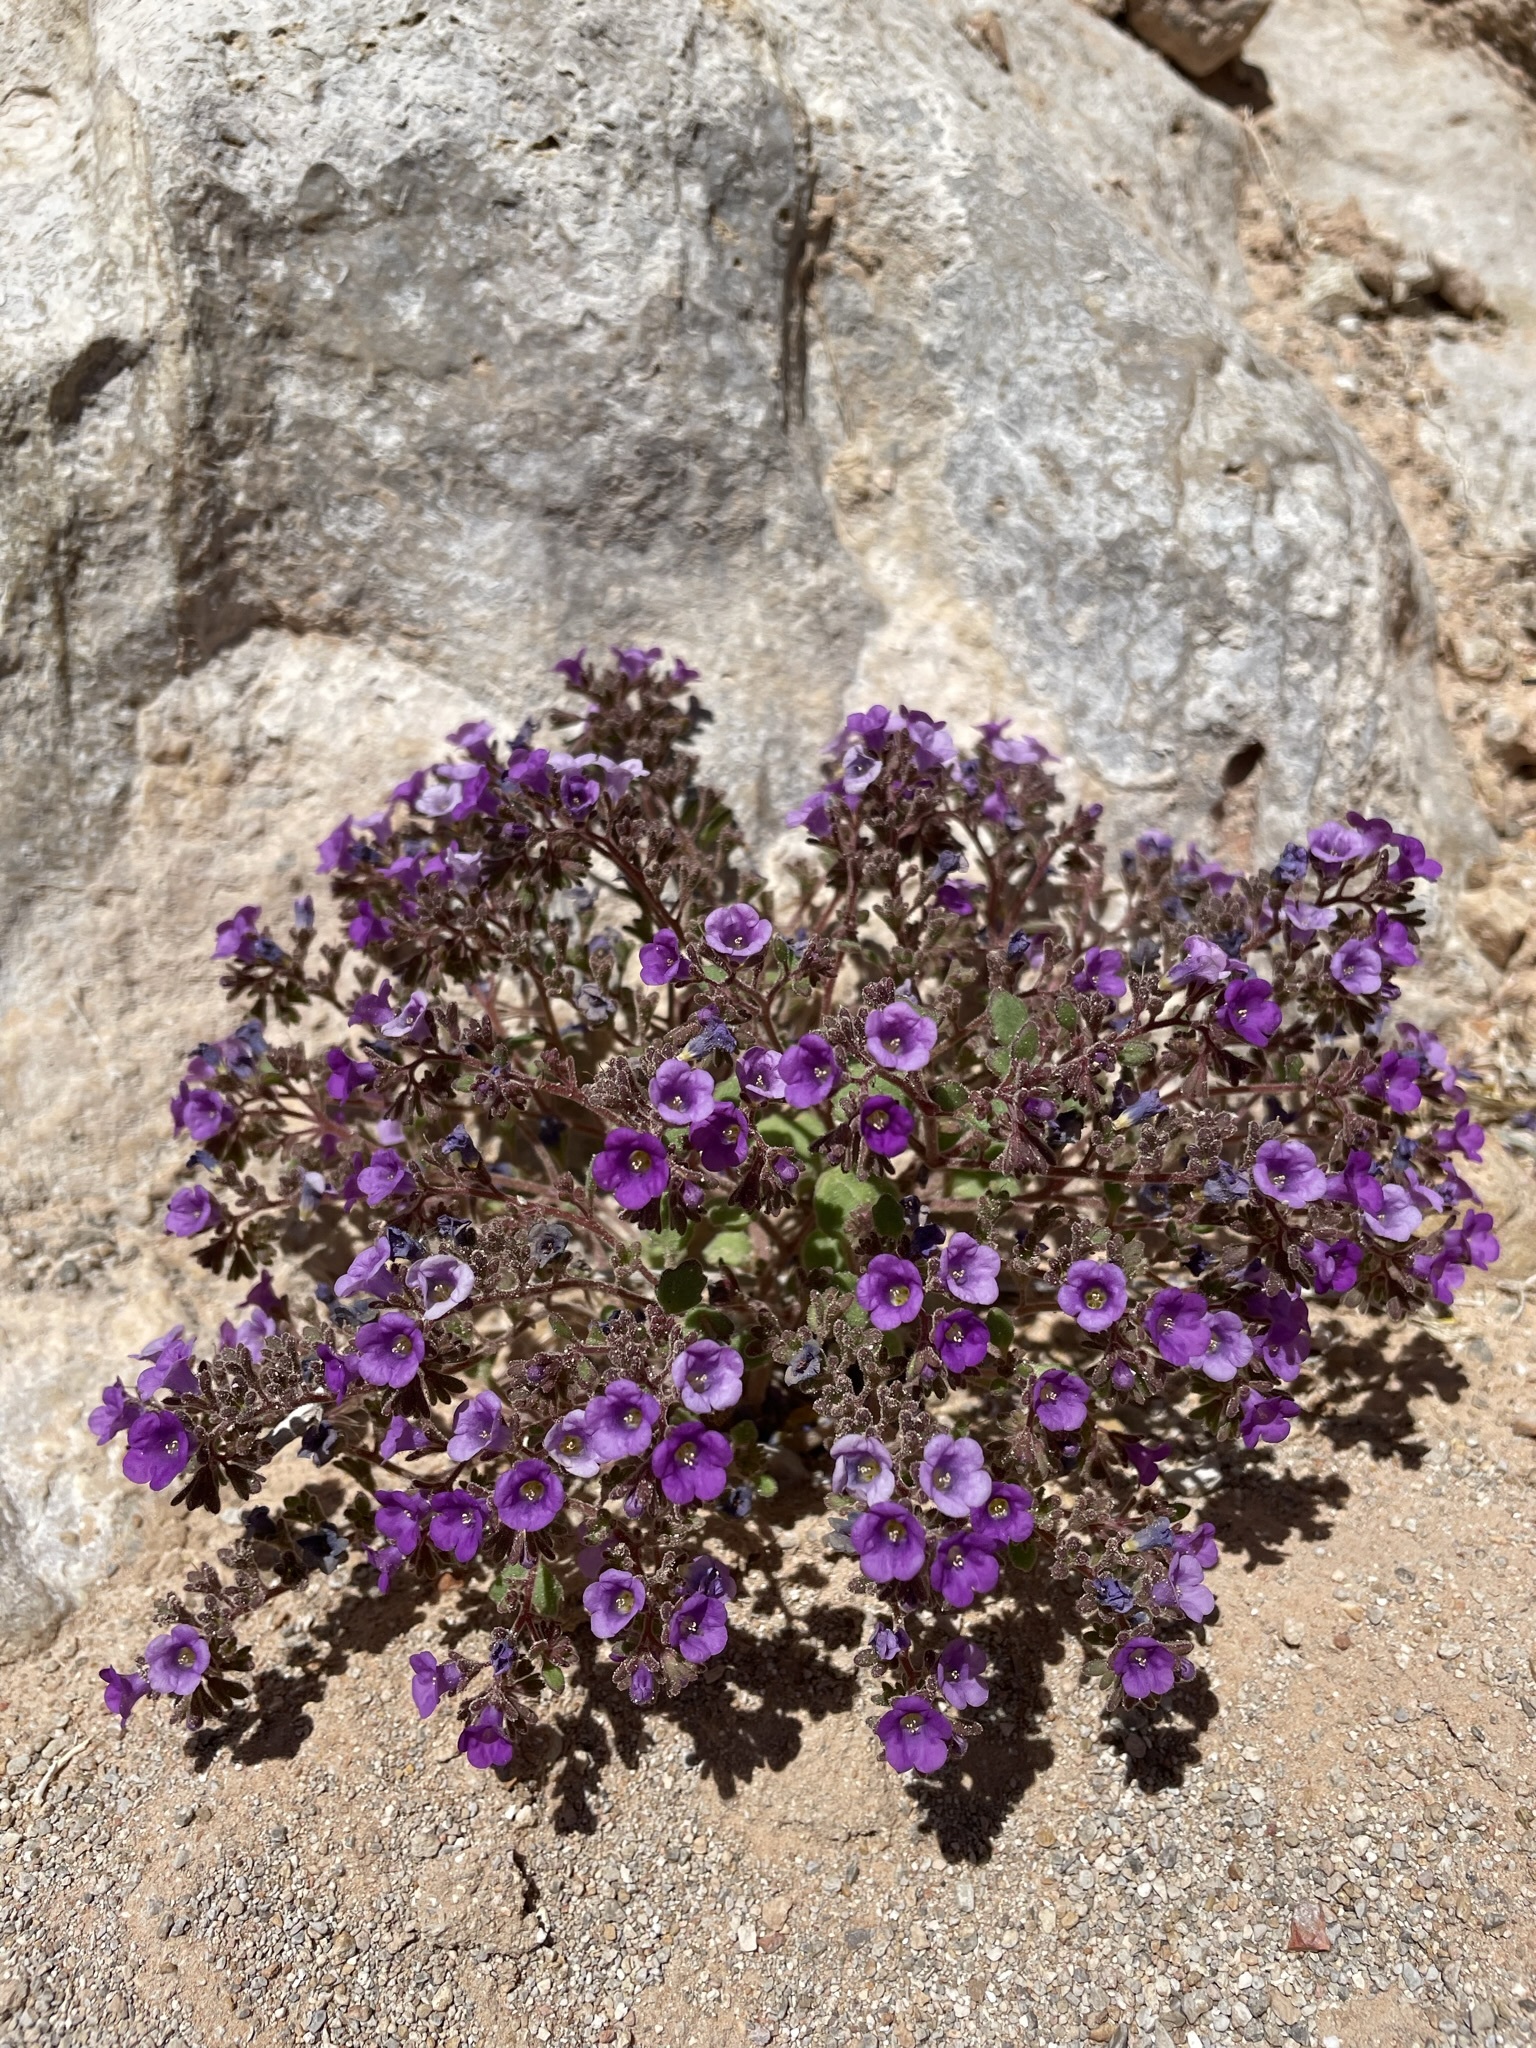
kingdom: Plantae
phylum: Tracheophyta
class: Magnoliopsida
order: Boraginales
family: Hydrophyllaceae
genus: Phacelia
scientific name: Phacelia pulchella
